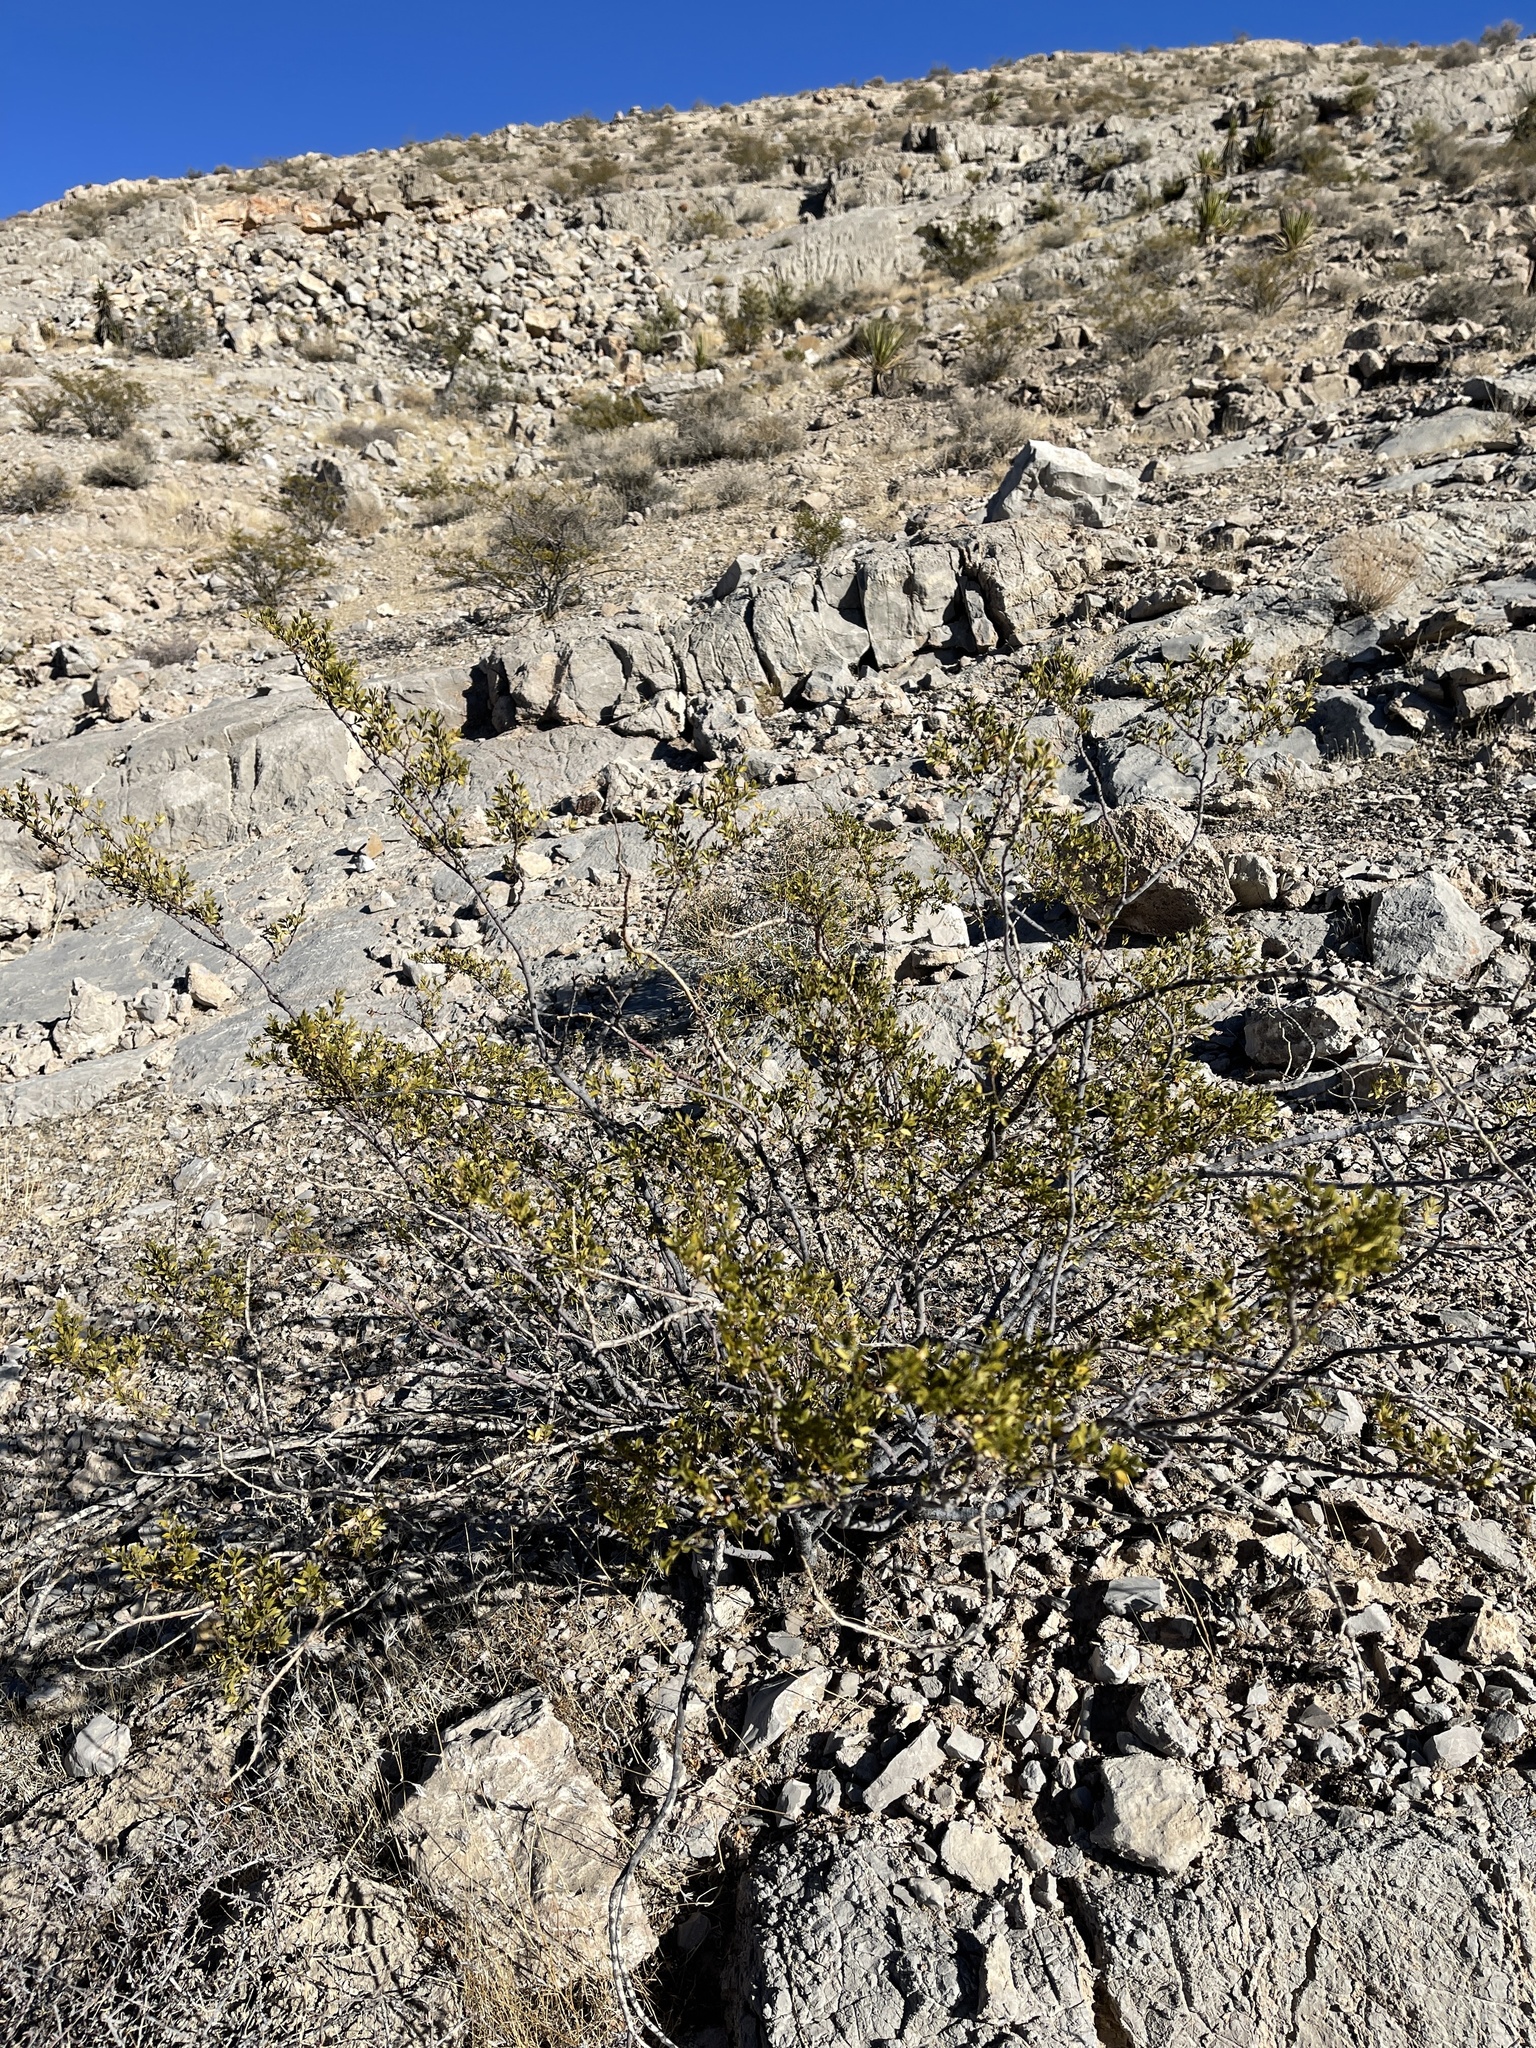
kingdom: Plantae
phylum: Tracheophyta
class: Magnoliopsida
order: Zygophyllales
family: Zygophyllaceae
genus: Larrea
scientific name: Larrea tridentata
